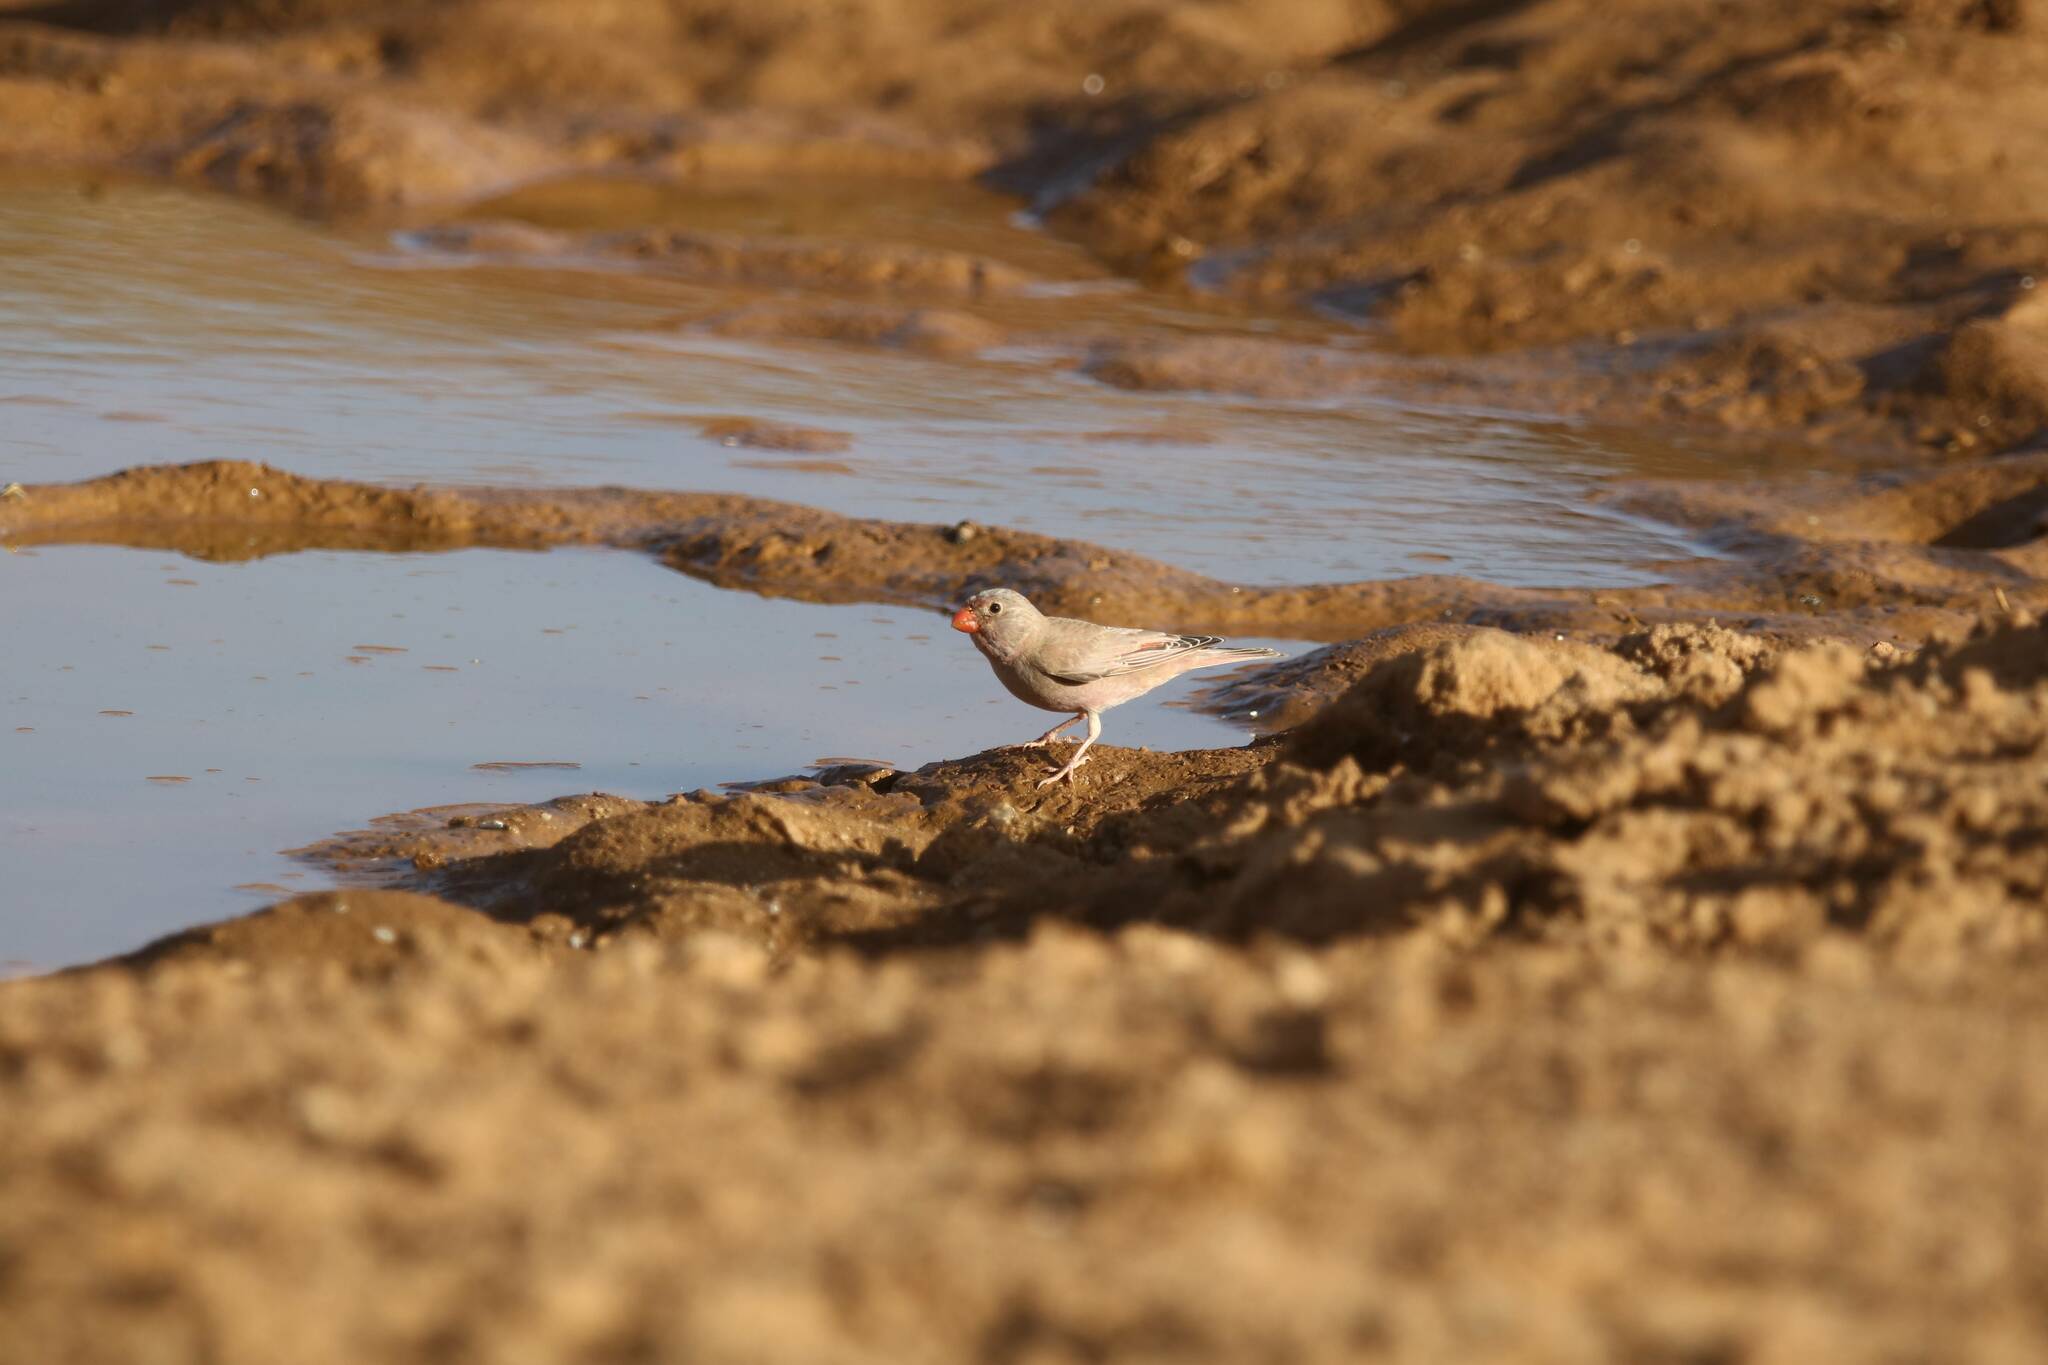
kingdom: Animalia
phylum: Chordata
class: Aves
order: Passeriformes
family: Fringillidae
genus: Bucanetes
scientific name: Bucanetes githagineus
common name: Trumpeter finch
